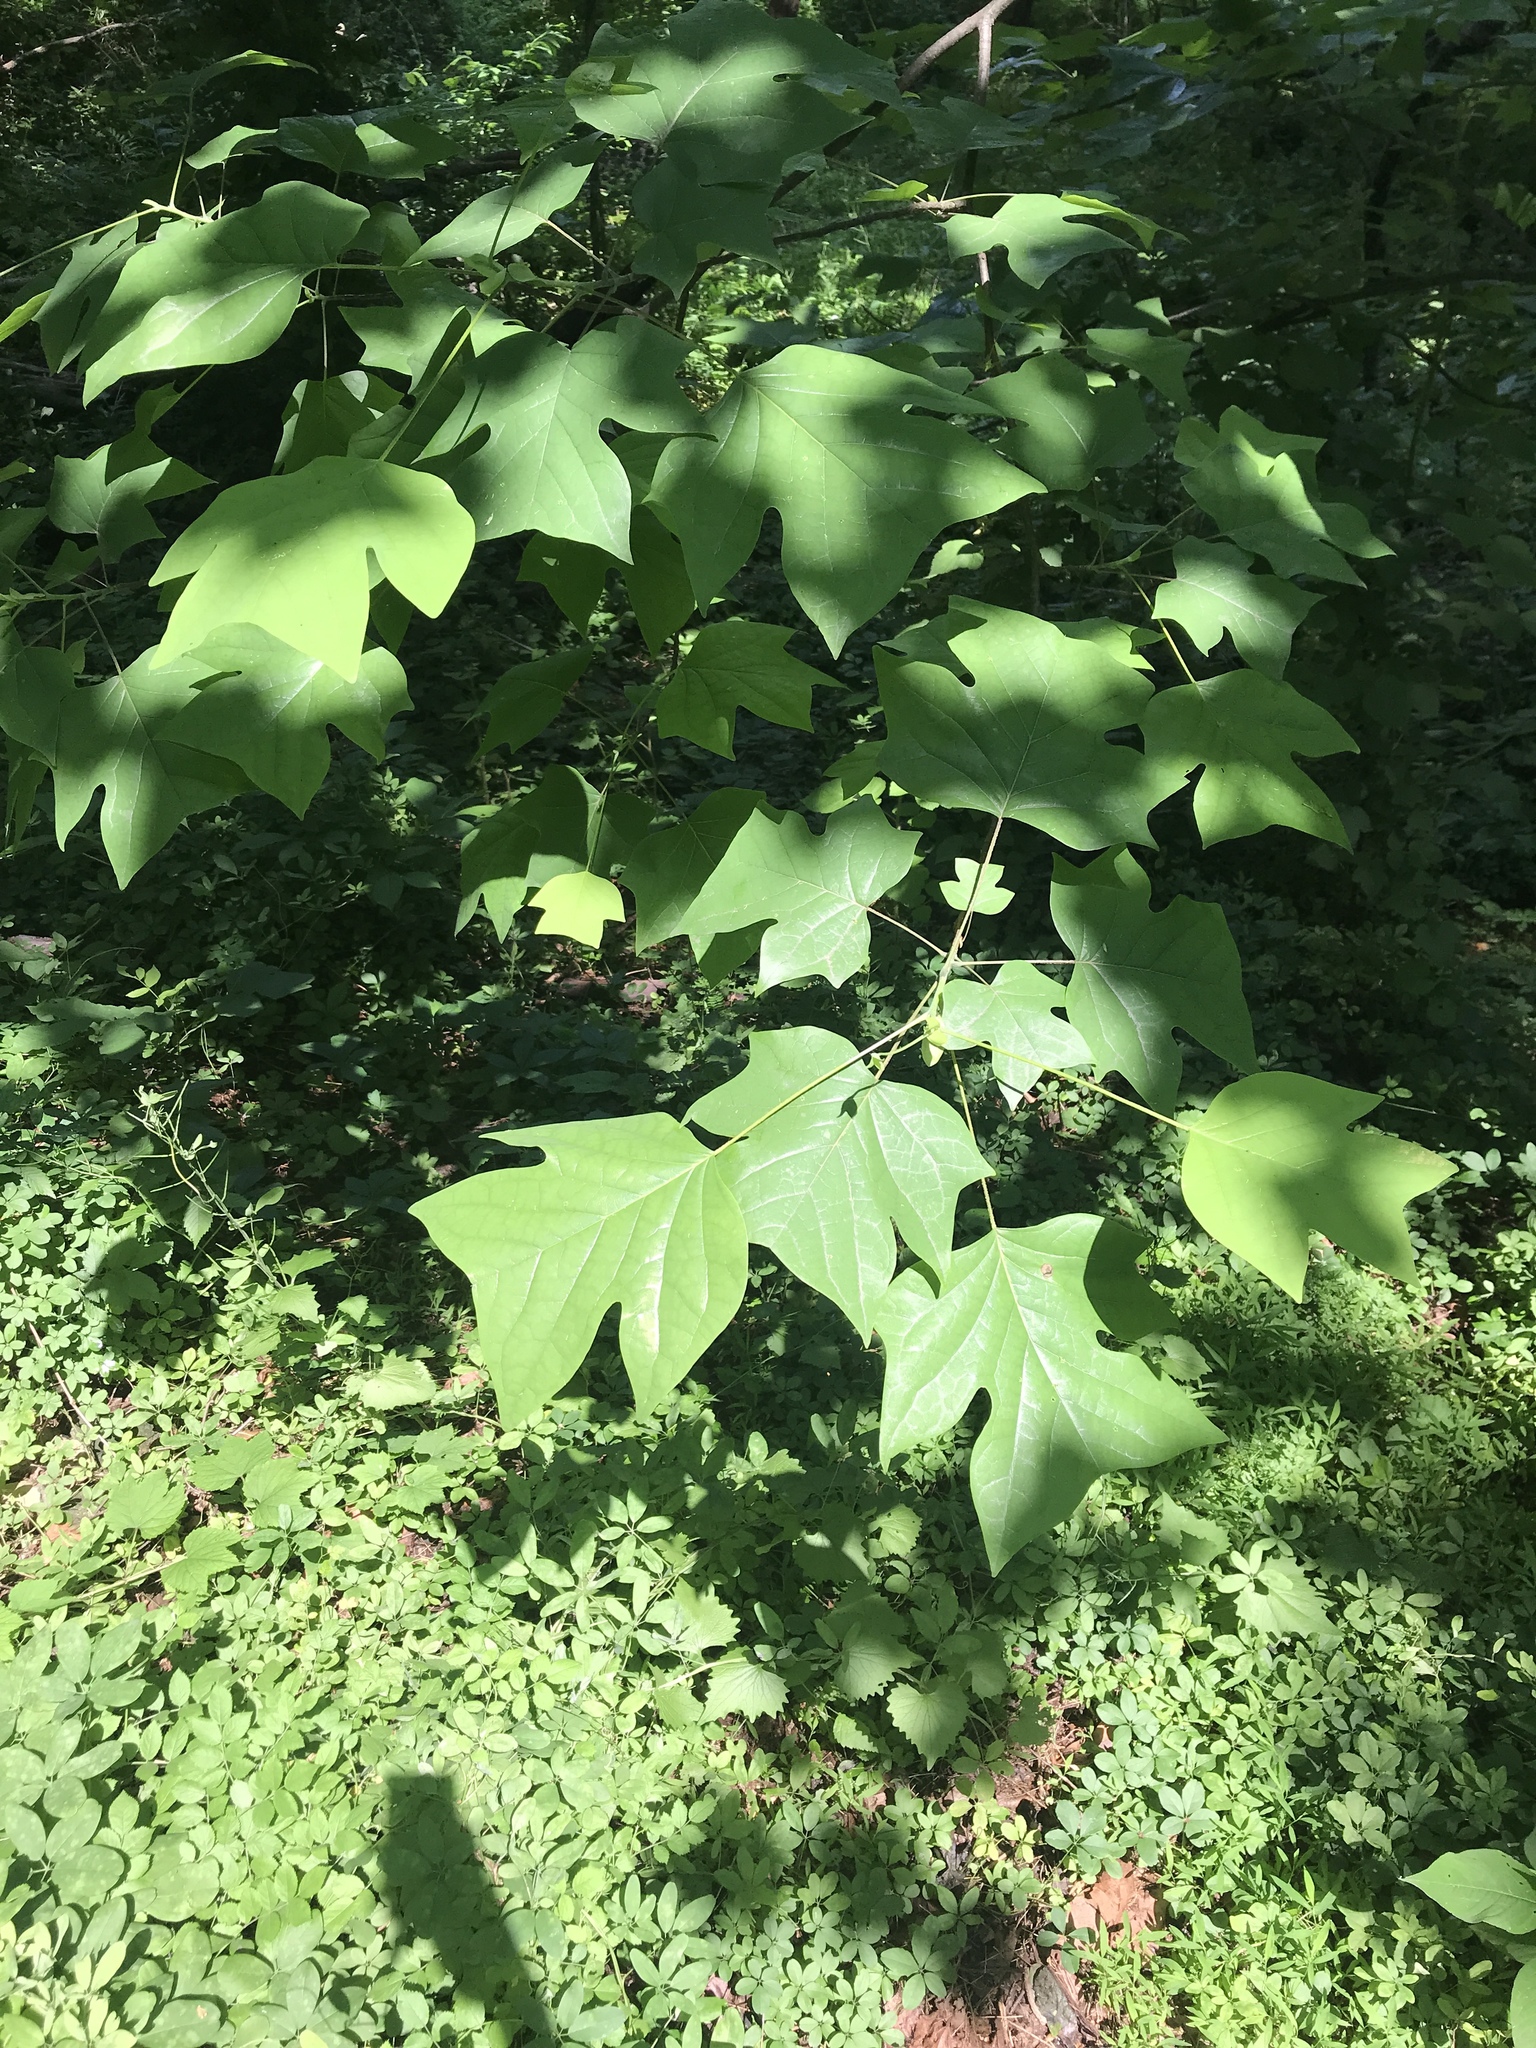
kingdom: Plantae
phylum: Tracheophyta
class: Magnoliopsida
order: Magnoliales
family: Magnoliaceae
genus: Liriodendron
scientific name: Liriodendron tulipifera
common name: Tulip tree
